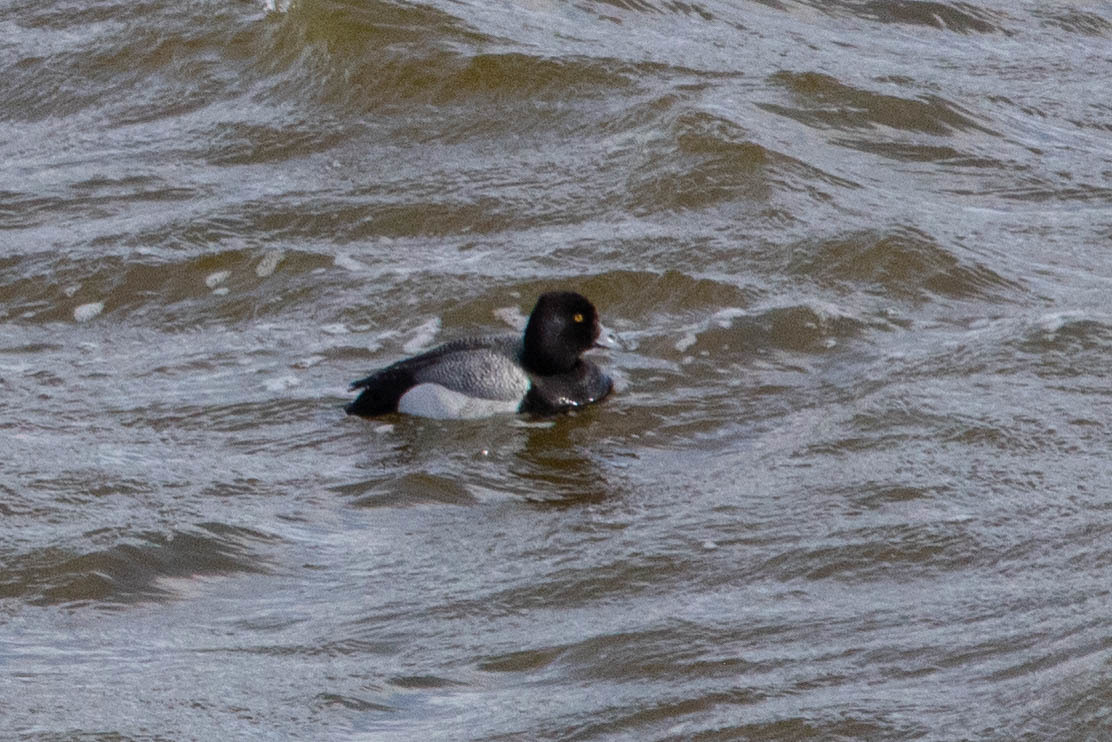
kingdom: Animalia
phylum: Chordata
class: Aves
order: Anseriformes
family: Anatidae
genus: Aythya
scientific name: Aythya affinis
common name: Lesser scaup
